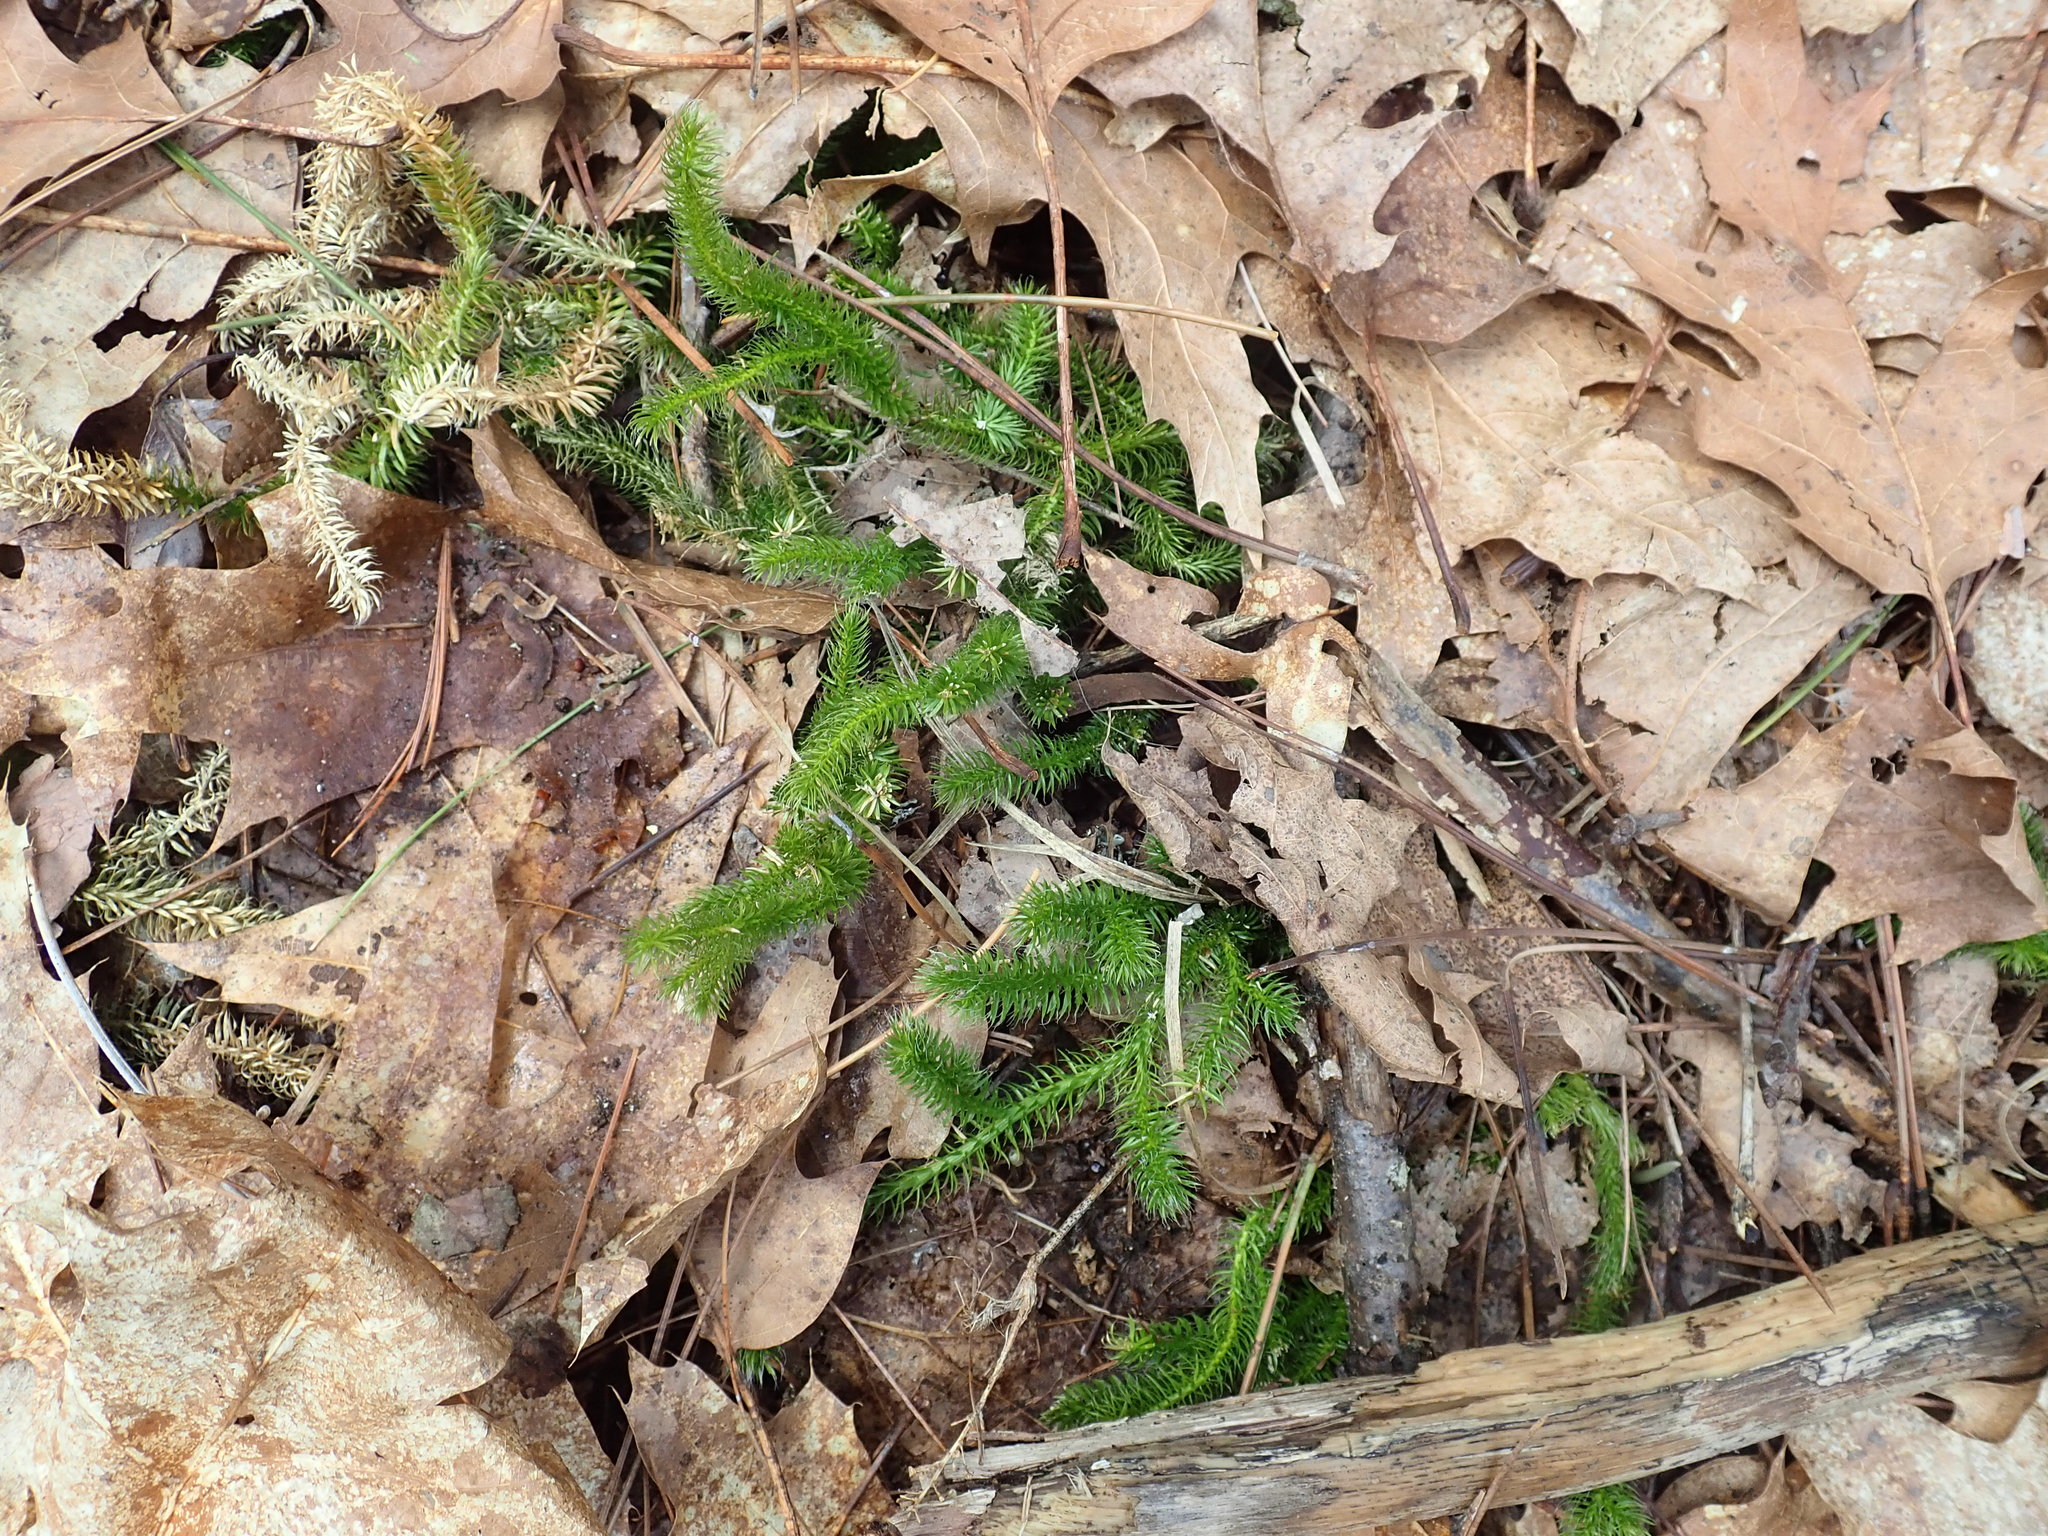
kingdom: Plantae
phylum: Tracheophyta
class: Lycopodiopsida
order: Lycopodiales
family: Lycopodiaceae
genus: Lycopodium
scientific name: Lycopodium clavatum
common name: Stag's-horn clubmoss
